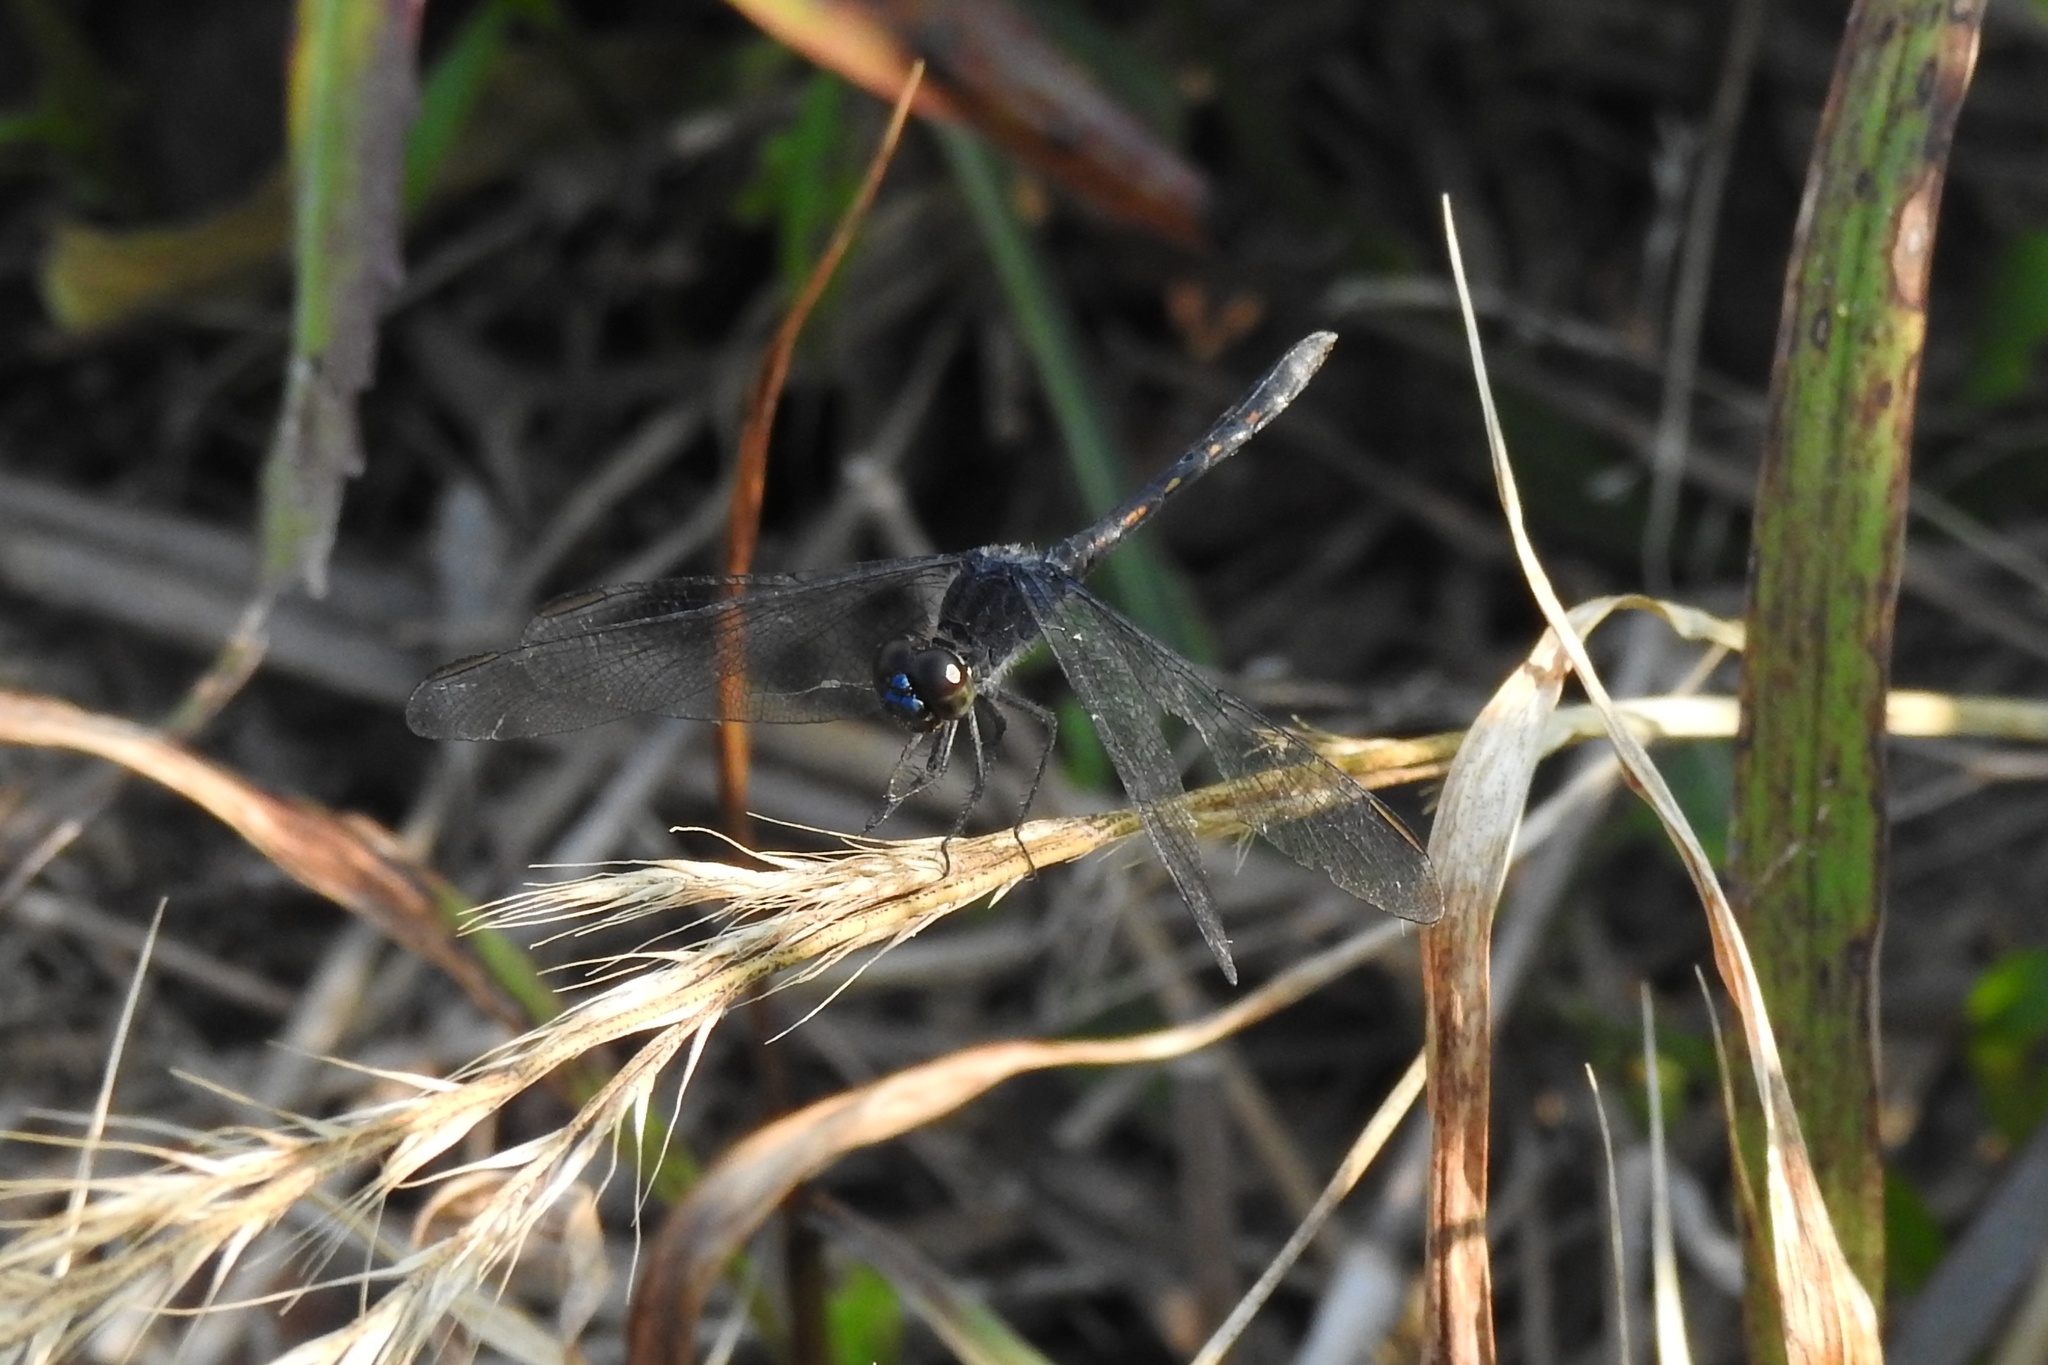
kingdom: Animalia
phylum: Arthropoda
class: Insecta
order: Odonata
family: Libellulidae
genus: Erythrodiplax
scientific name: Erythrodiplax berenice
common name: Seaside dragonlet
